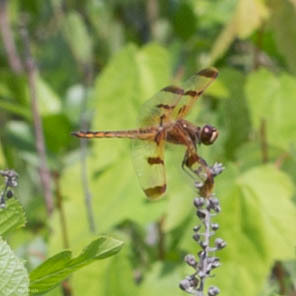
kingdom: Animalia
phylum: Arthropoda
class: Insecta
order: Odonata
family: Libellulidae
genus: Libellula
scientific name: Libellula semifasciata
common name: Painted skimmer
